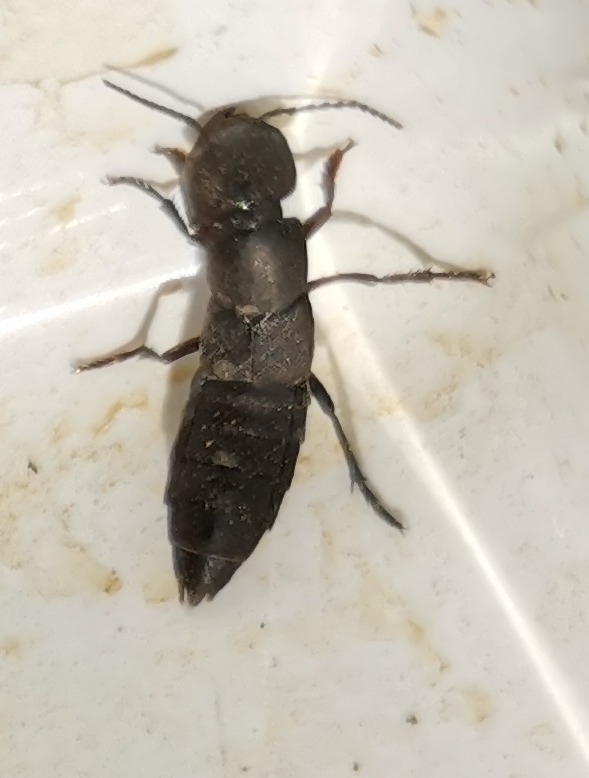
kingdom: Animalia
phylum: Arthropoda
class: Insecta
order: Coleoptera
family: Staphylinidae
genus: Ocypus
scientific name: Ocypus olens
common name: Devil's coach-horse
